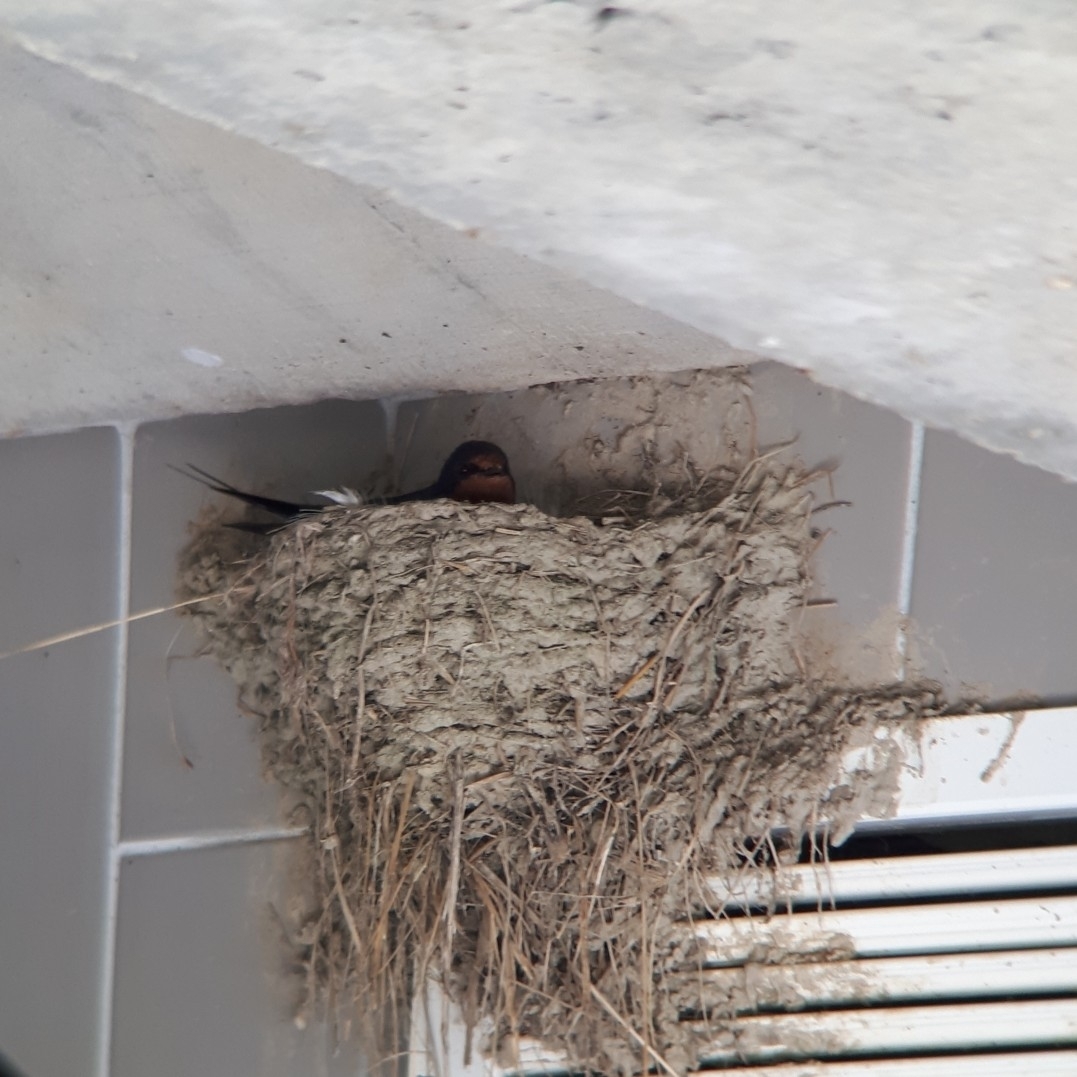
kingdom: Animalia
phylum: Chordata
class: Aves
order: Passeriformes
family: Hirundinidae
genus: Hirundo
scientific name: Hirundo rustica
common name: Barn swallow
